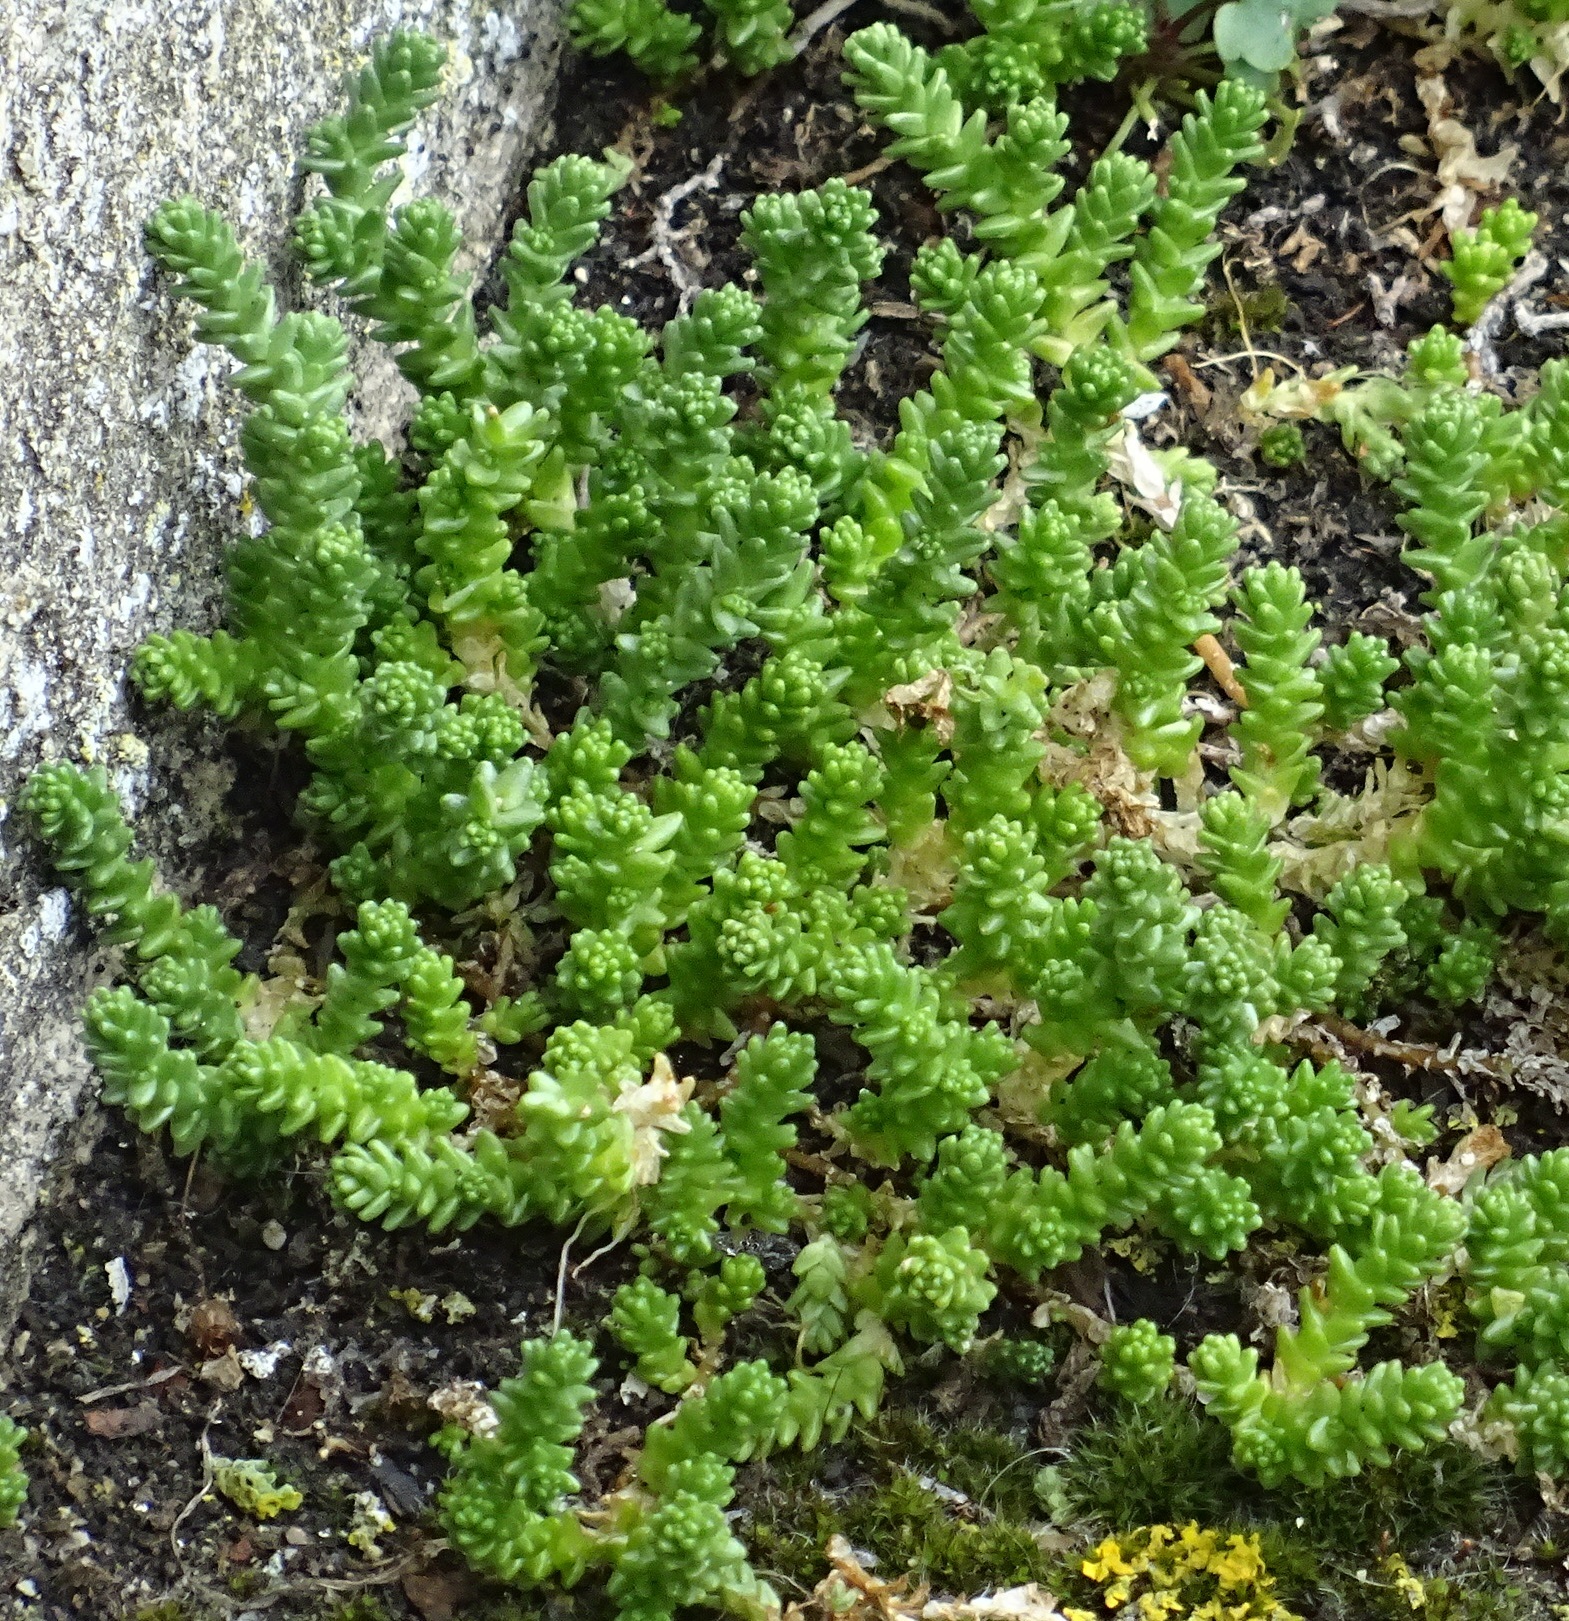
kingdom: Plantae
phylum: Tracheophyta
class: Magnoliopsida
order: Saxifragales
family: Crassulaceae
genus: Sedum
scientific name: Sedum acre
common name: Biting stonecrop
